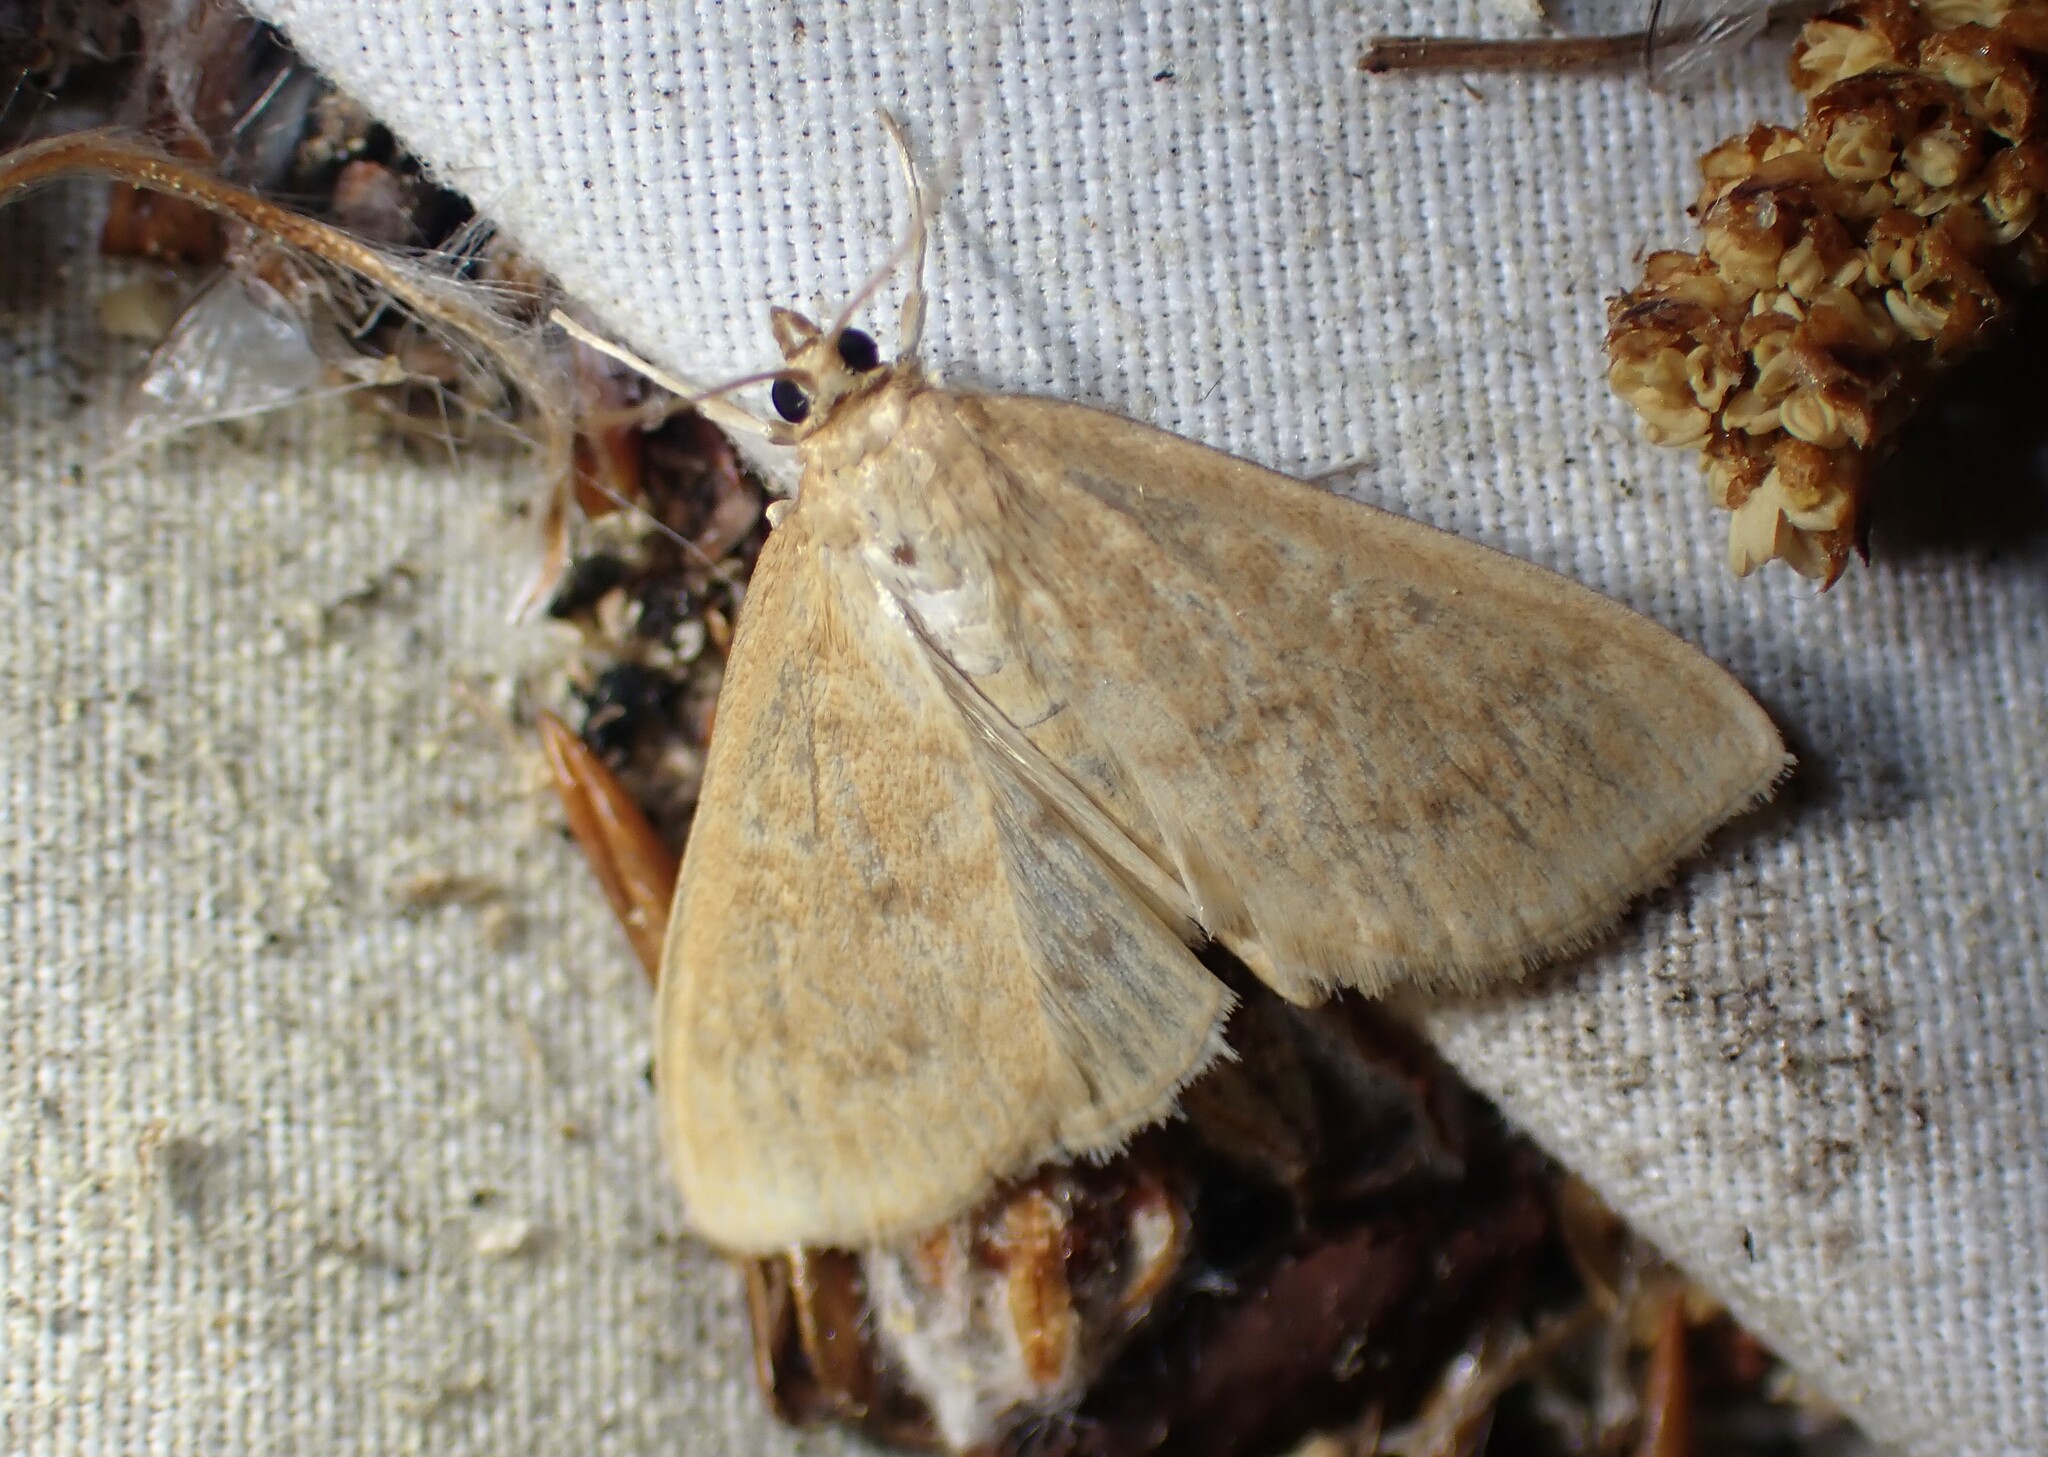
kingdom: Animalia
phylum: Arthropoda
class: Insecta
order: Lepidoptera
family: Crambidae
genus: Anania
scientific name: Anania Framinghamia helvalis
